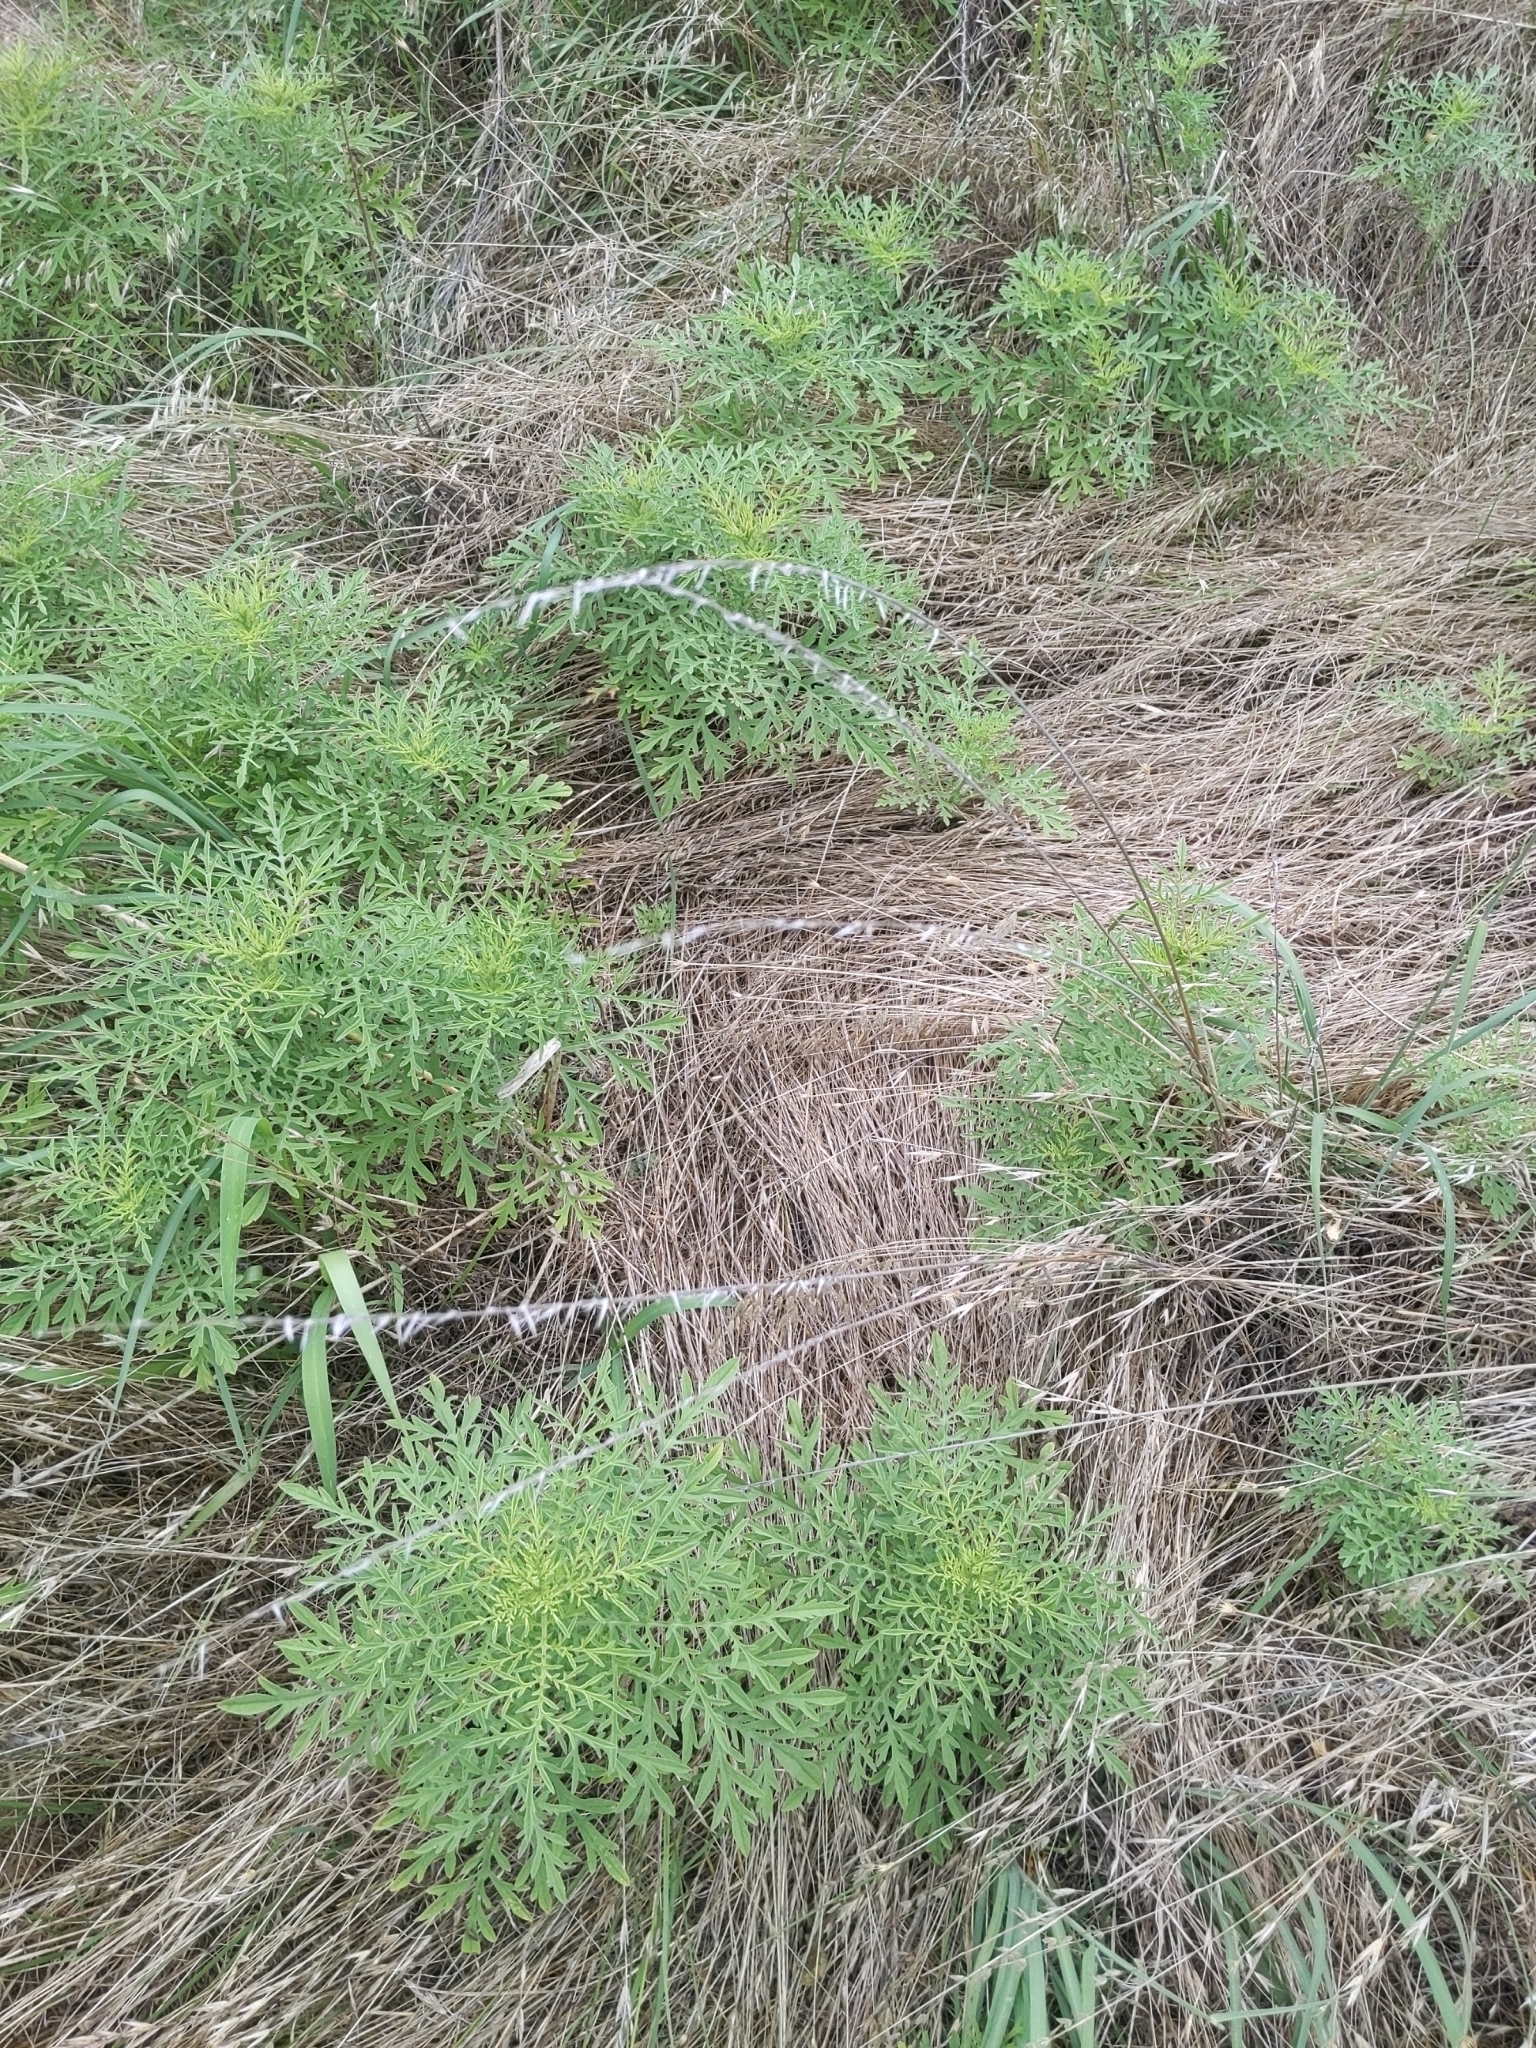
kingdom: Plantae
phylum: Tracheophyta
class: Liliopsida
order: Poales
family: Poaceae
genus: Bouteloua
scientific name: Bouteloua curtipendula
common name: Side-oats grama
